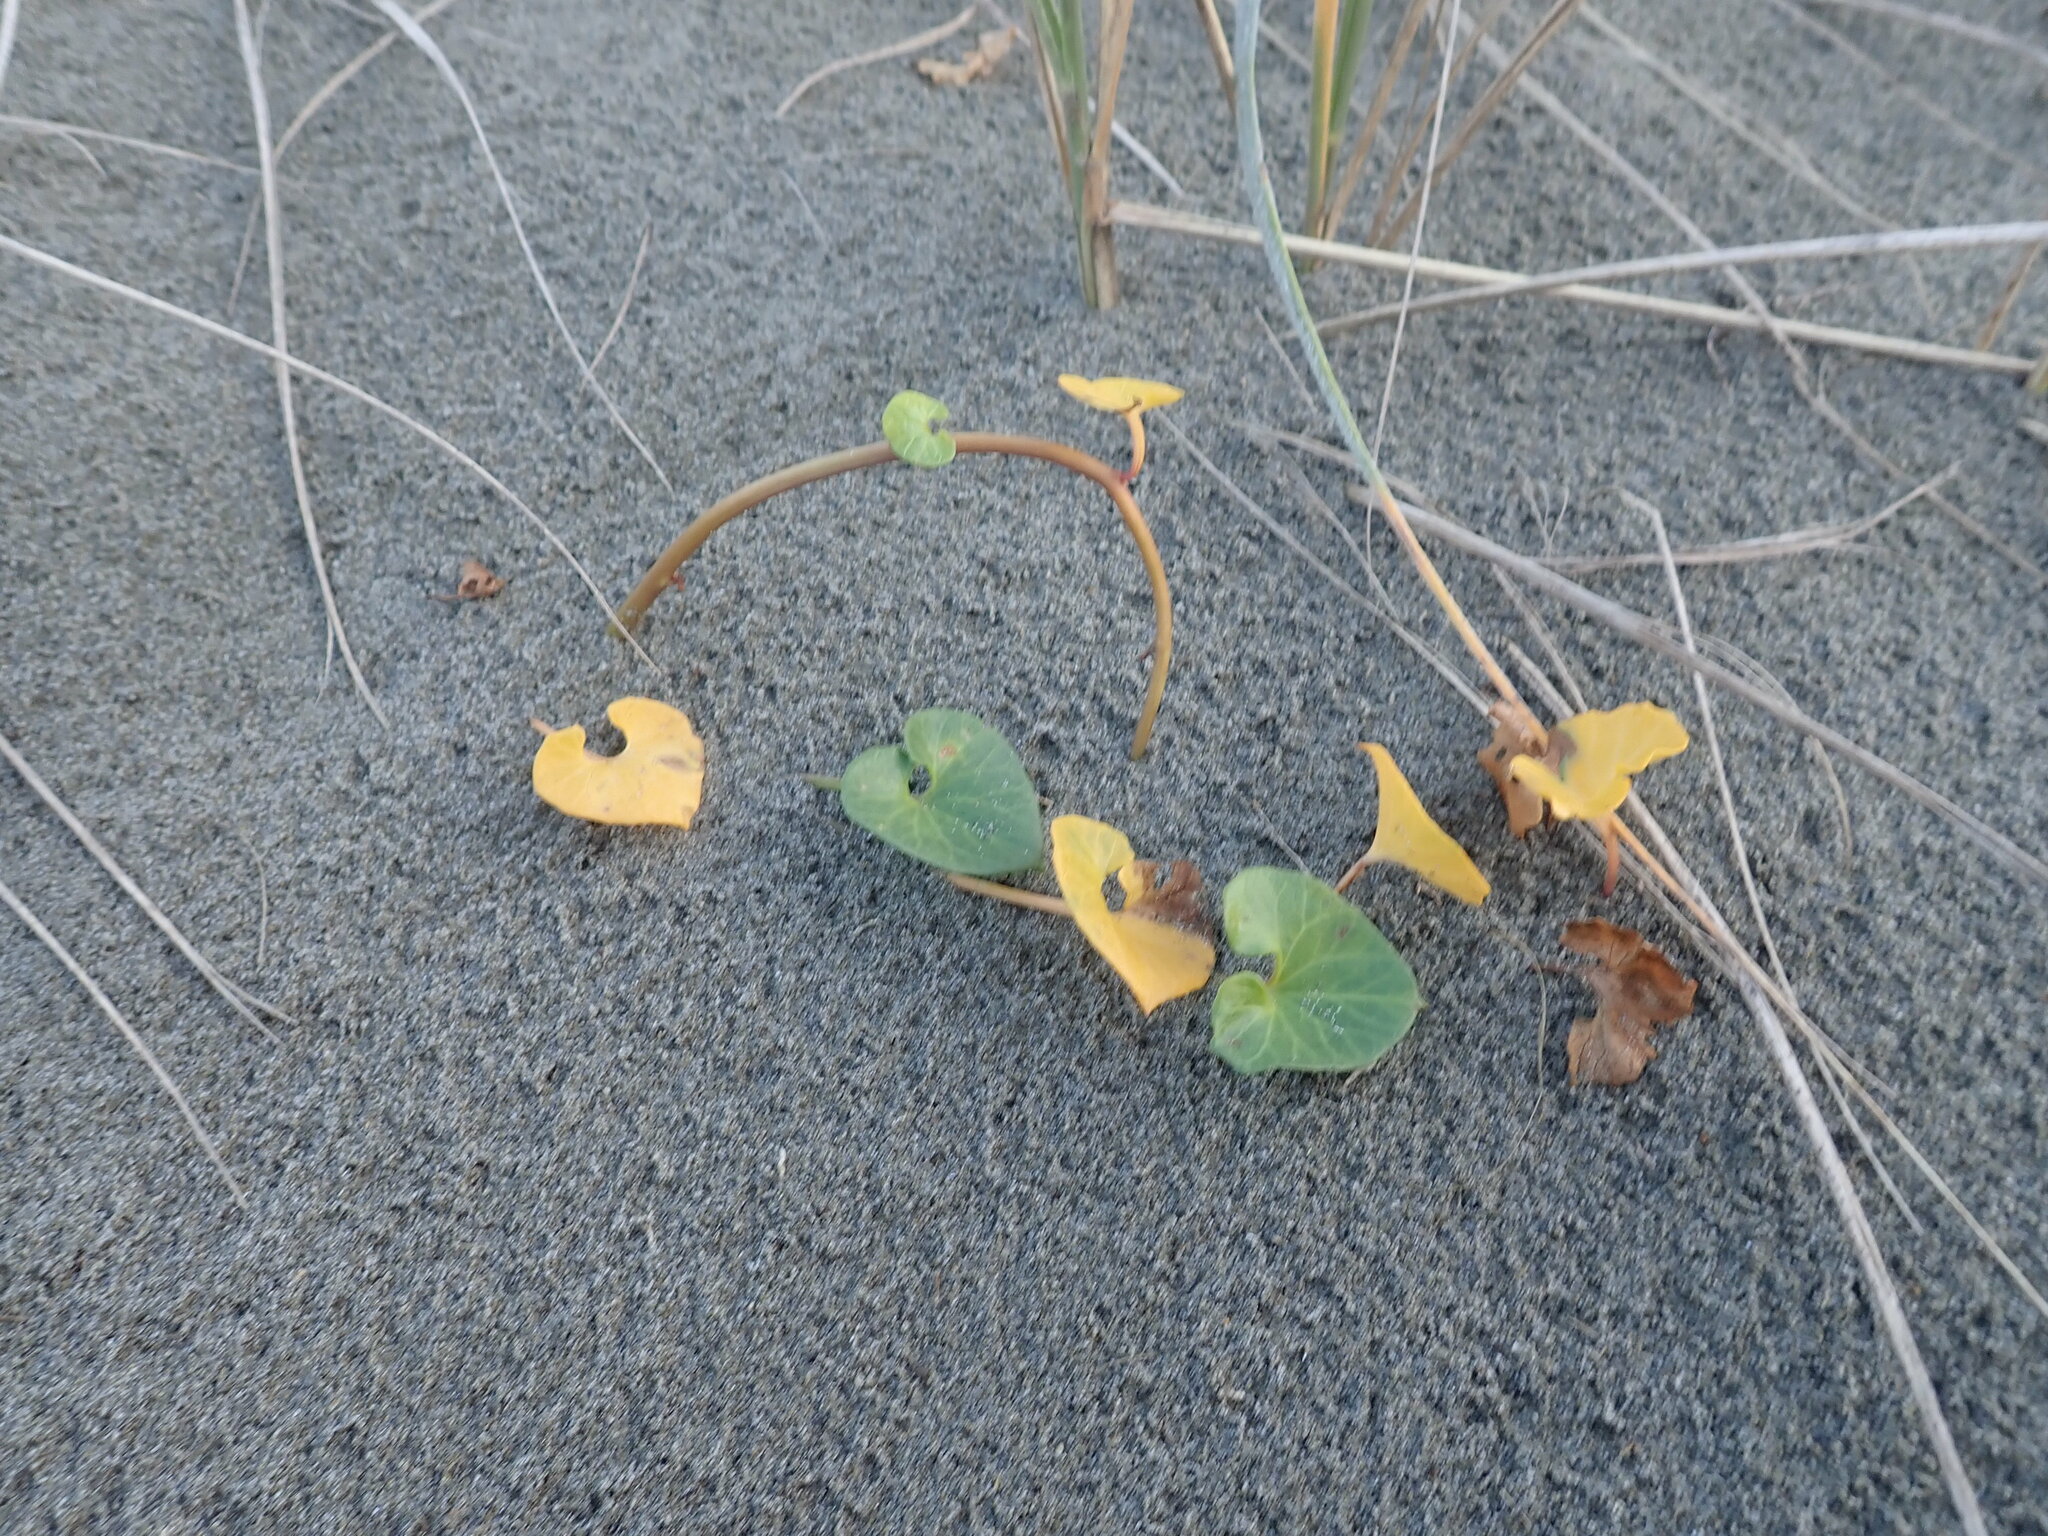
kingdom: Plantae
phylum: Tracheophyta
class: Magnoliopsida
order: Solanales
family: Convolvulaceae
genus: Calystegia
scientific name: Calystegia soldanella
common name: Sea bindweed
